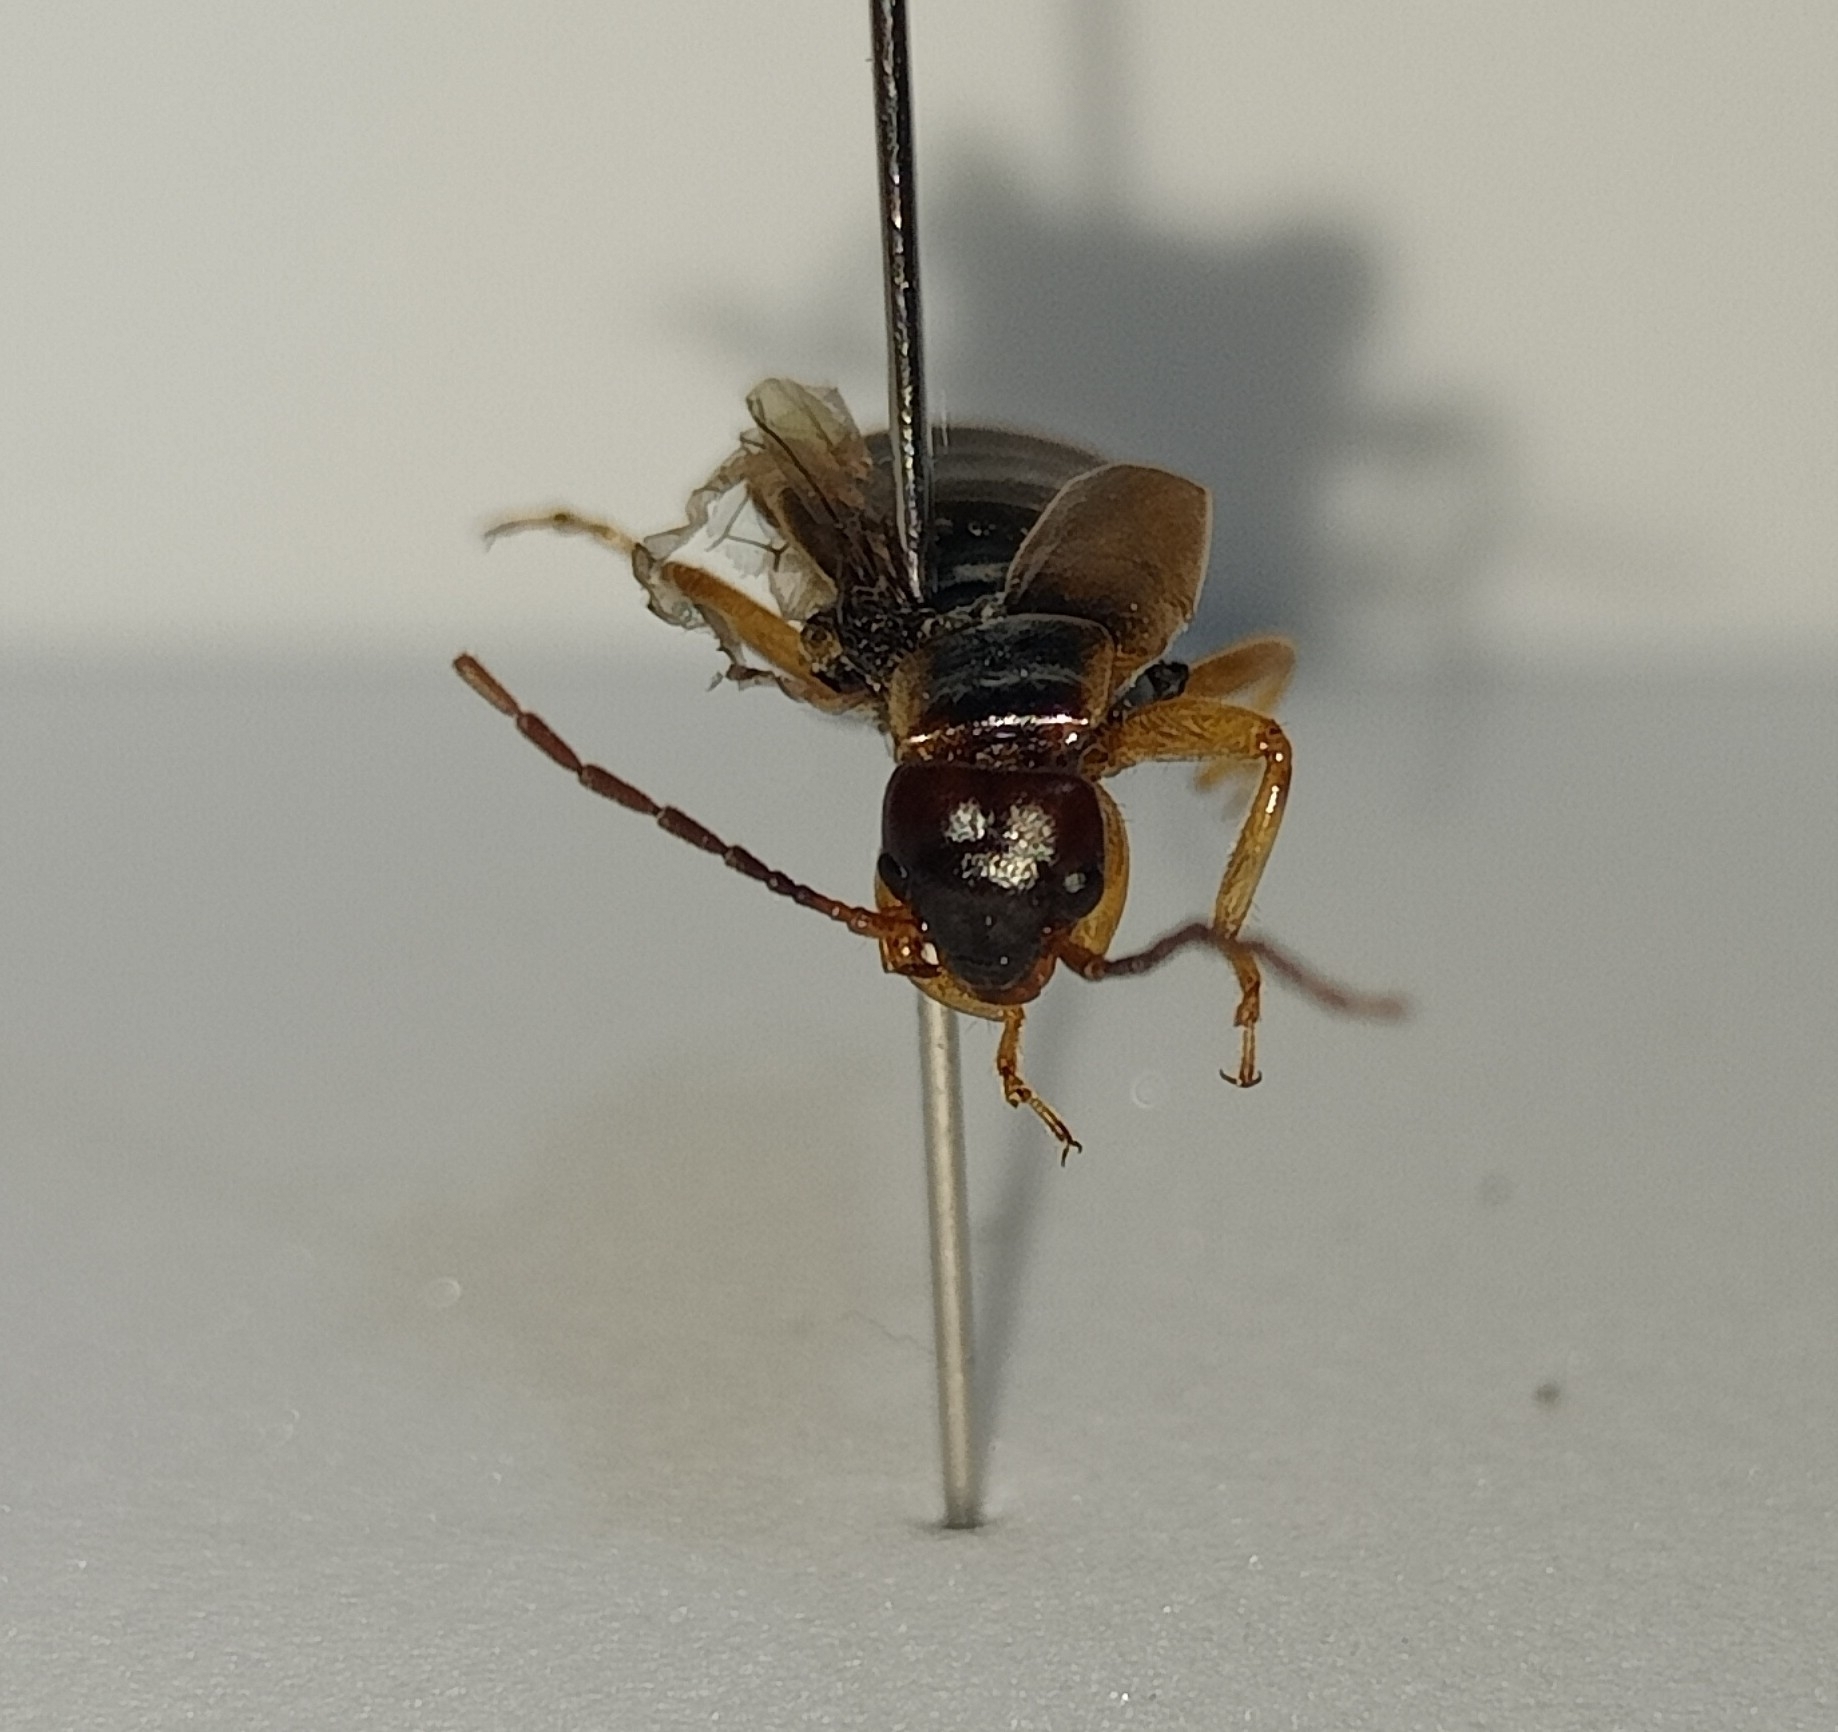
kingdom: Animalia
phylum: Arthropoda
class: Insecta
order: Dermaptera
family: Forficulidae
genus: Forficula
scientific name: Forficula lurida
